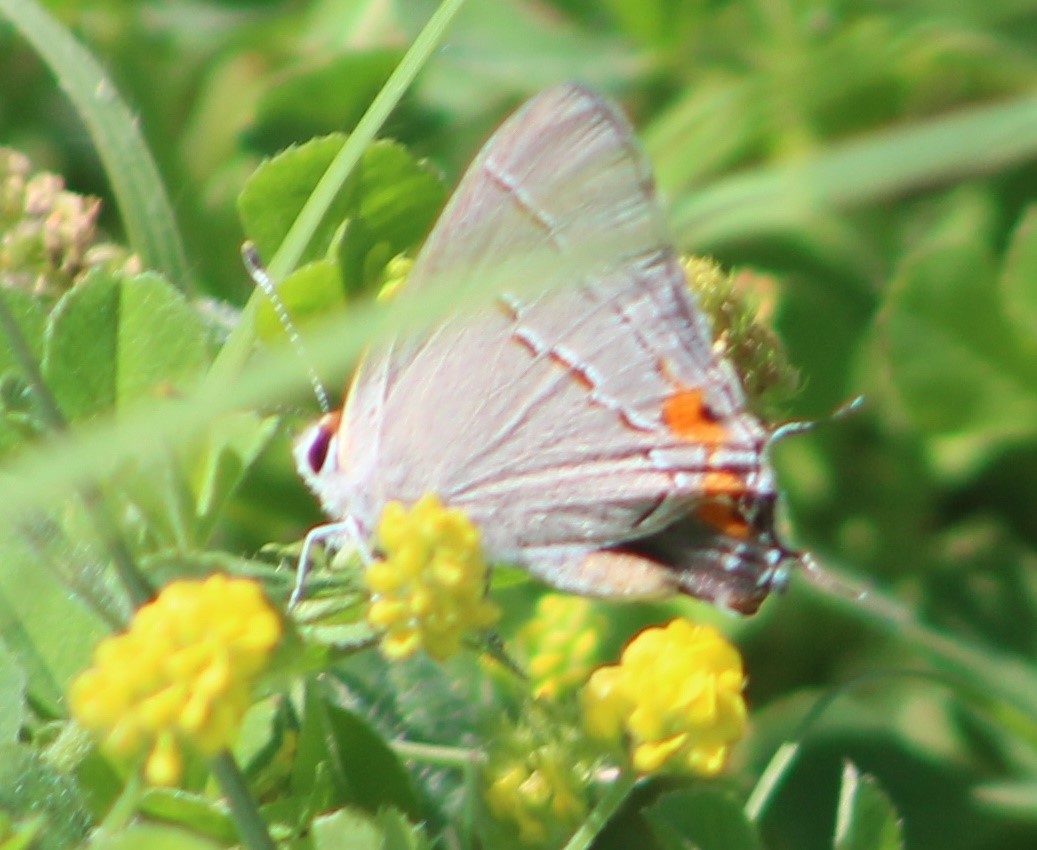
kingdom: Animalia
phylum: Arthropoda
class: Insecta
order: Lepidoptera
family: Lycaenidae
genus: Strymon
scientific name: Strymon melinus
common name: Gray hairstreak
